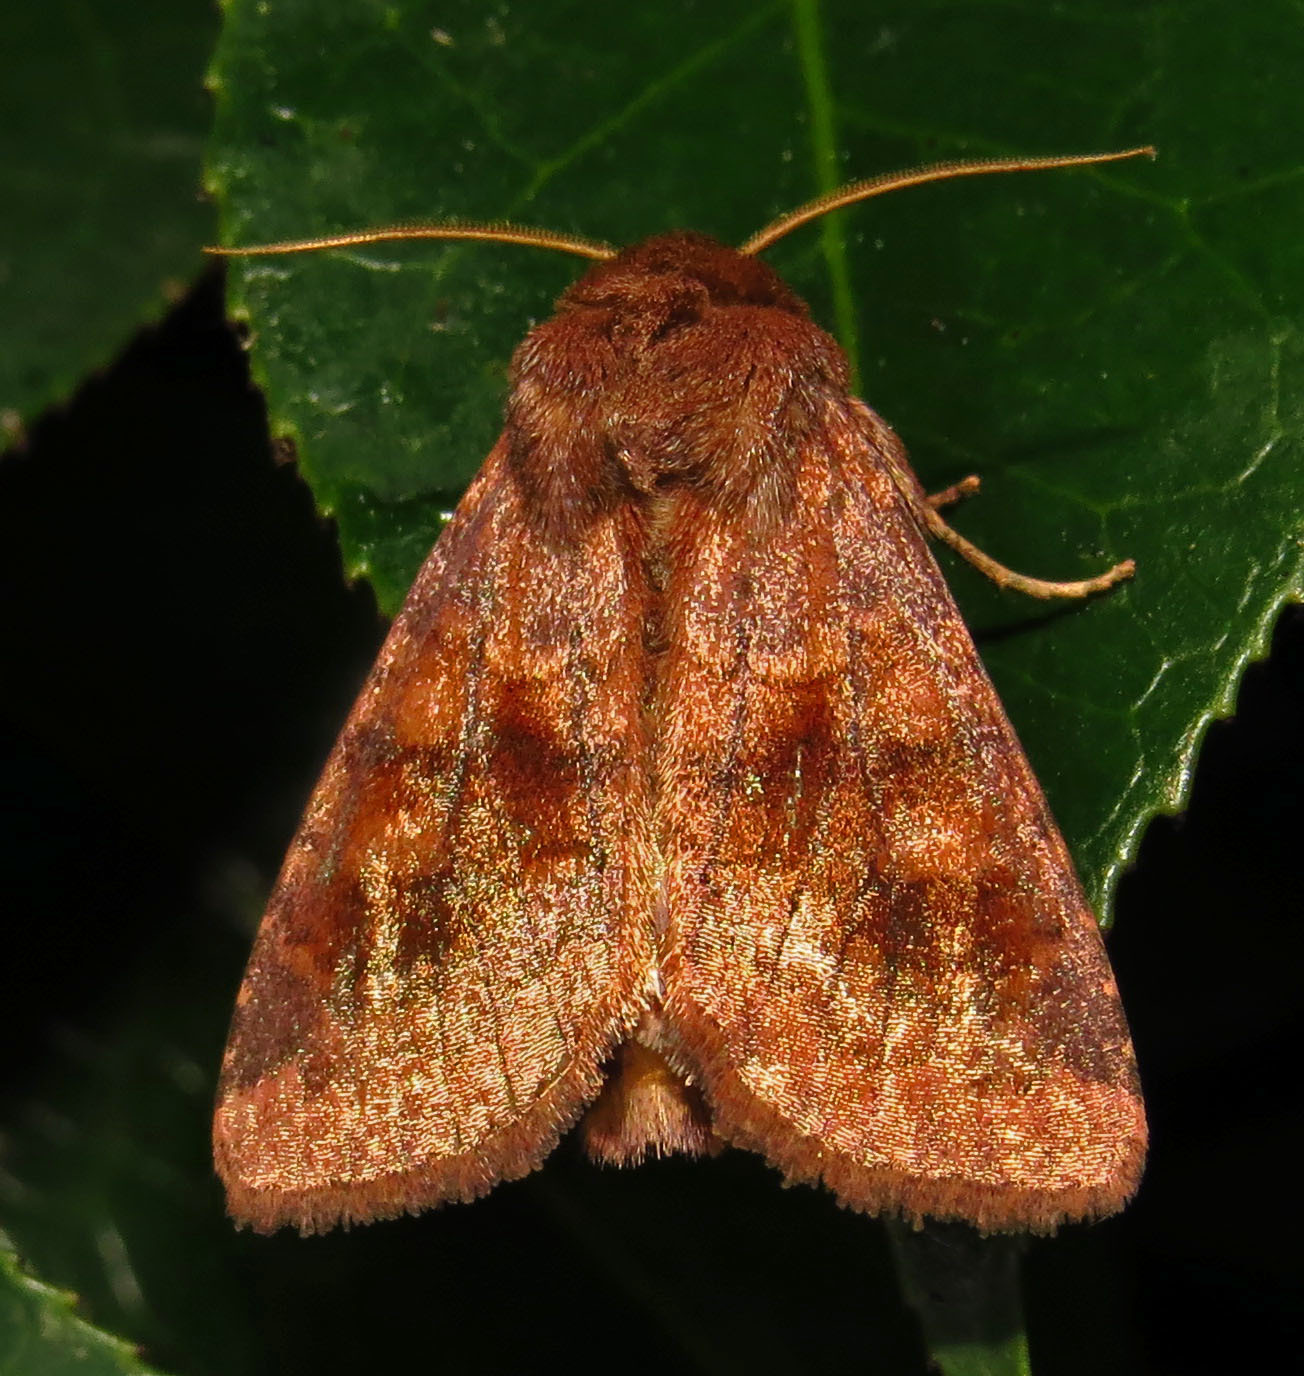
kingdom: Animalia
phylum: Arthropoda
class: Insecta
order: Lepidoptera
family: Noctuidae
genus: Nephelodes
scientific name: Nephelodes minians
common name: Bronzed cutworm
